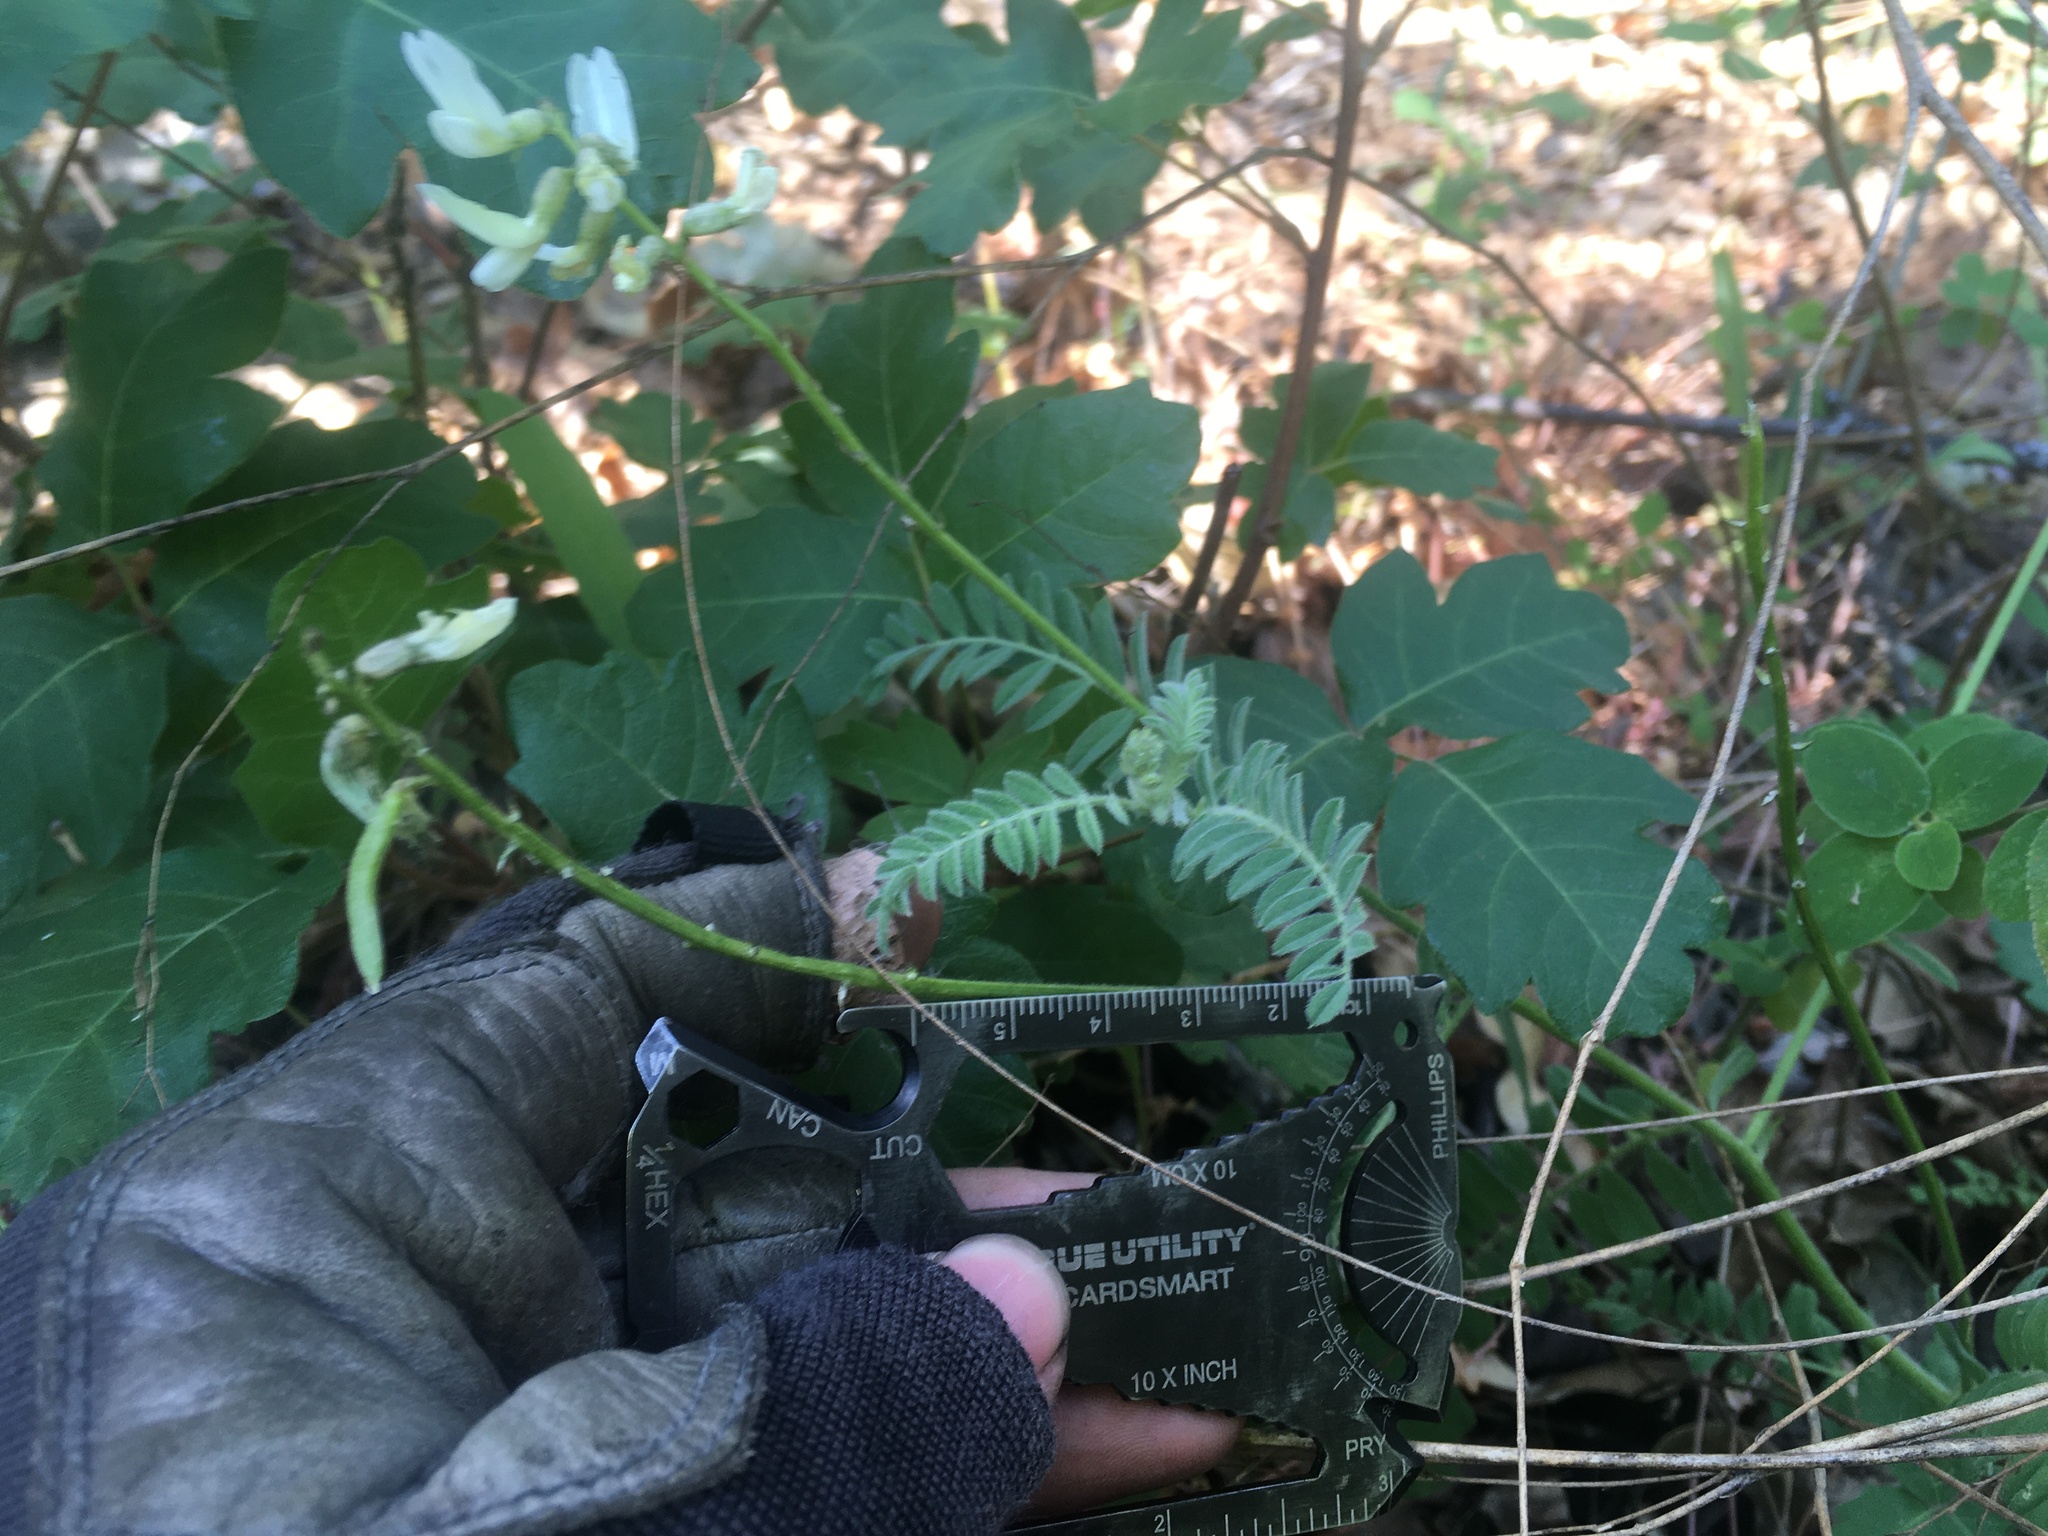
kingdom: Plantae
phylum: Tracheophyta
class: Magnoliopsida
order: Fabales
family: Fabaceae
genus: Astragalus
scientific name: Astragalus congdonii
